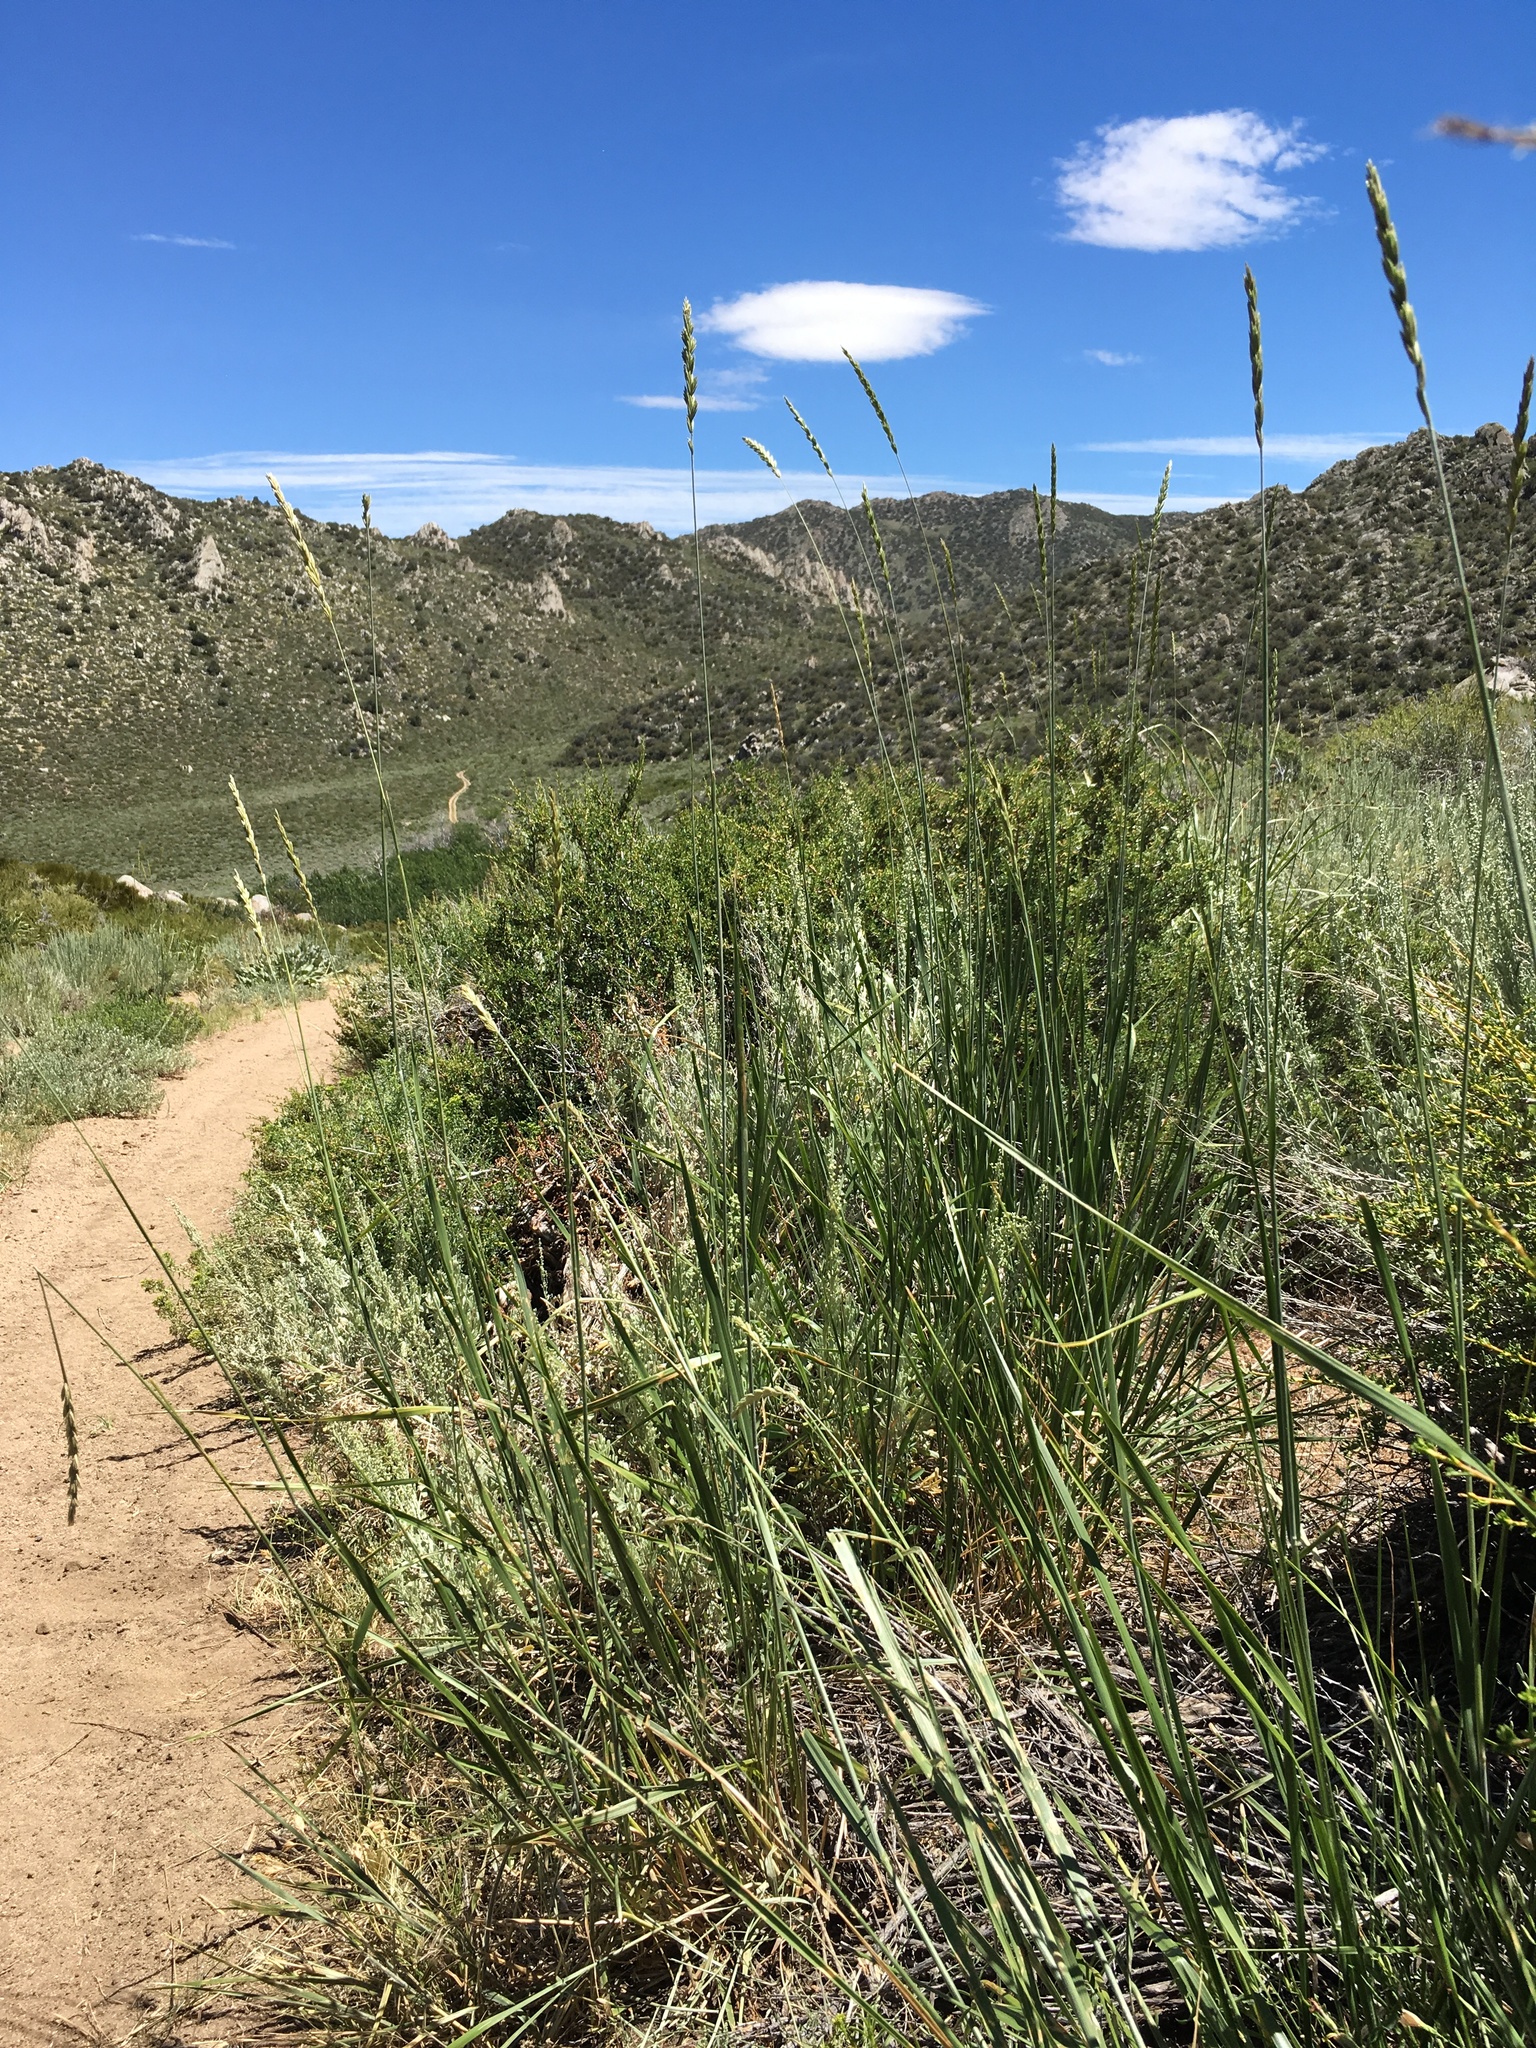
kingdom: Plantae
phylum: Tracheophyta
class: Liliopsida
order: Poales
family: Poaceae
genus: Leymus
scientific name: Leymus cinereus
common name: Basin wild rye
